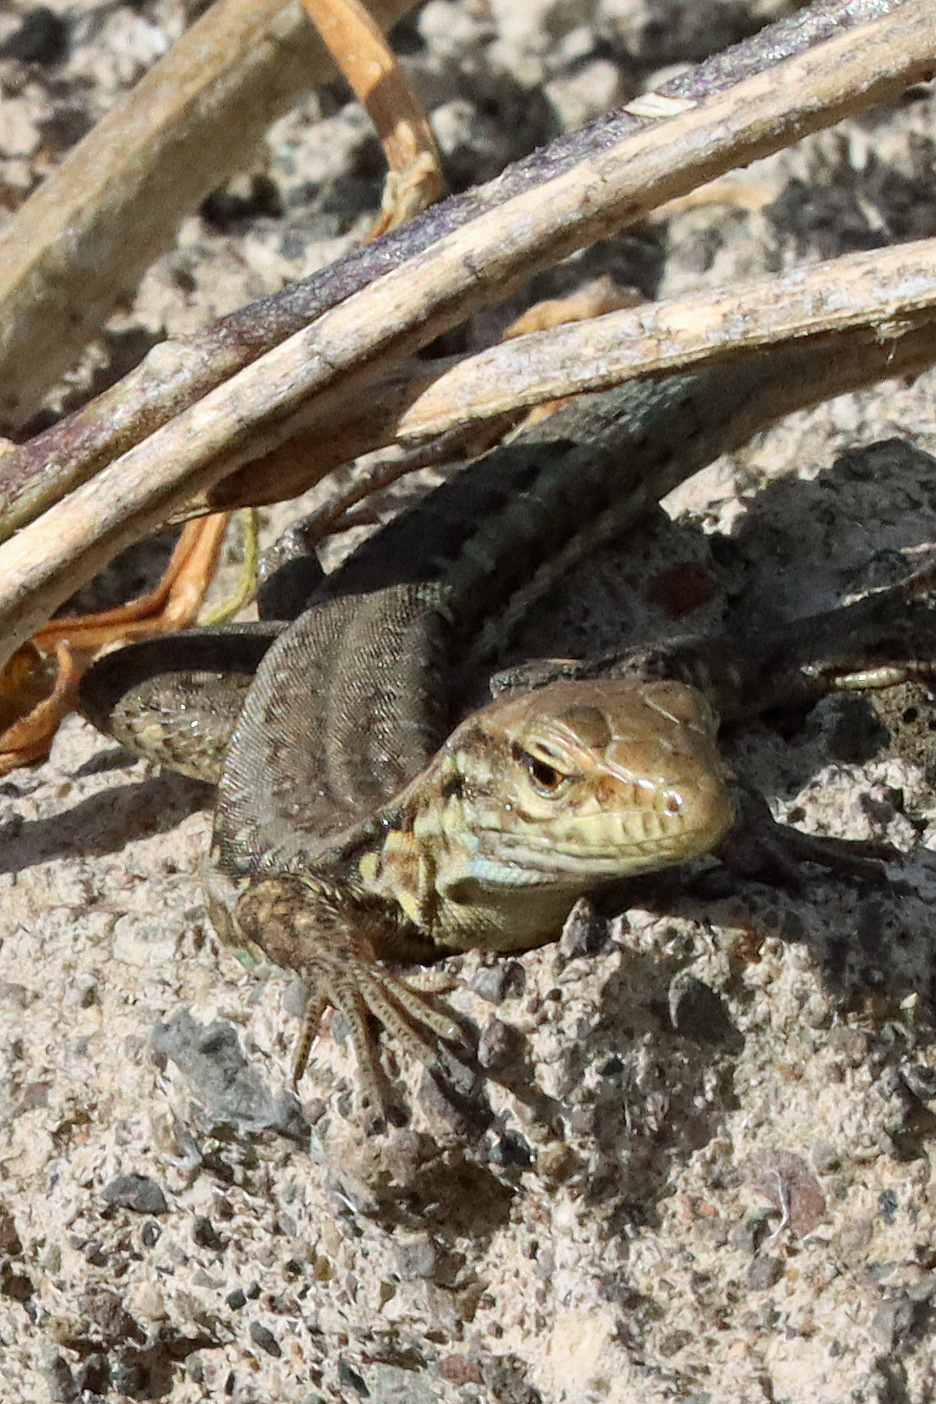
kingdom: Animalia
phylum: Chordata
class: Squamata
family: Lacertidae
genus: Gallotia
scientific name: Gallotia galloti
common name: Gallot's lizard
